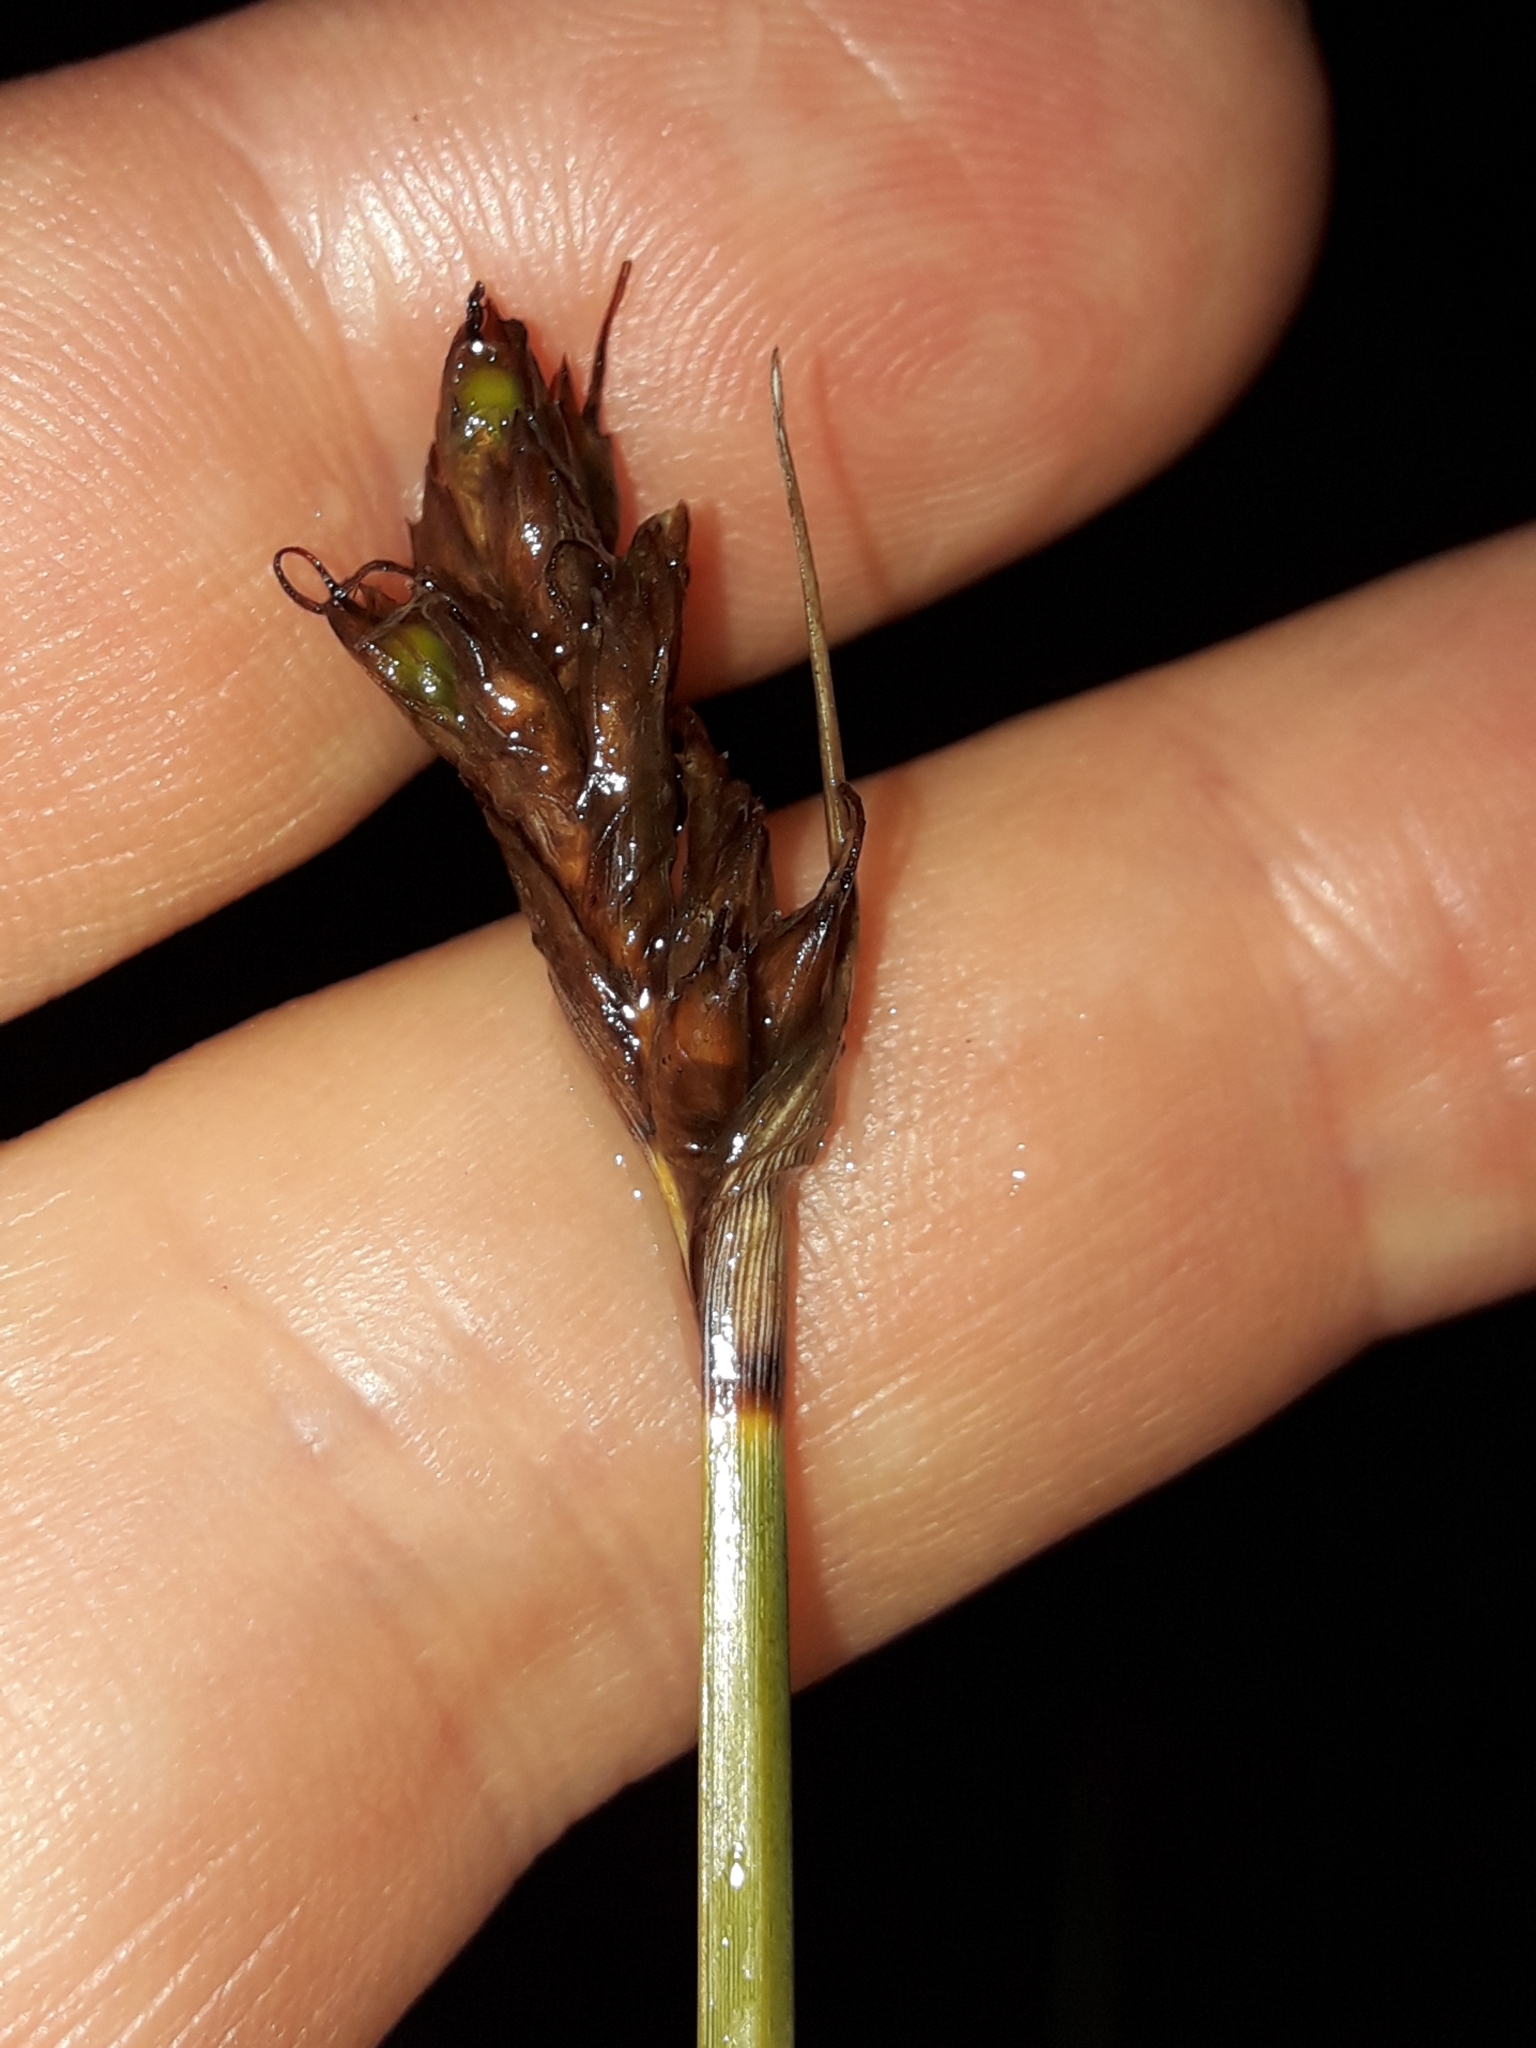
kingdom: Plantae
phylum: Tracheophyta
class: Liliopsida
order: Poales
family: Cyperaceae
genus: Lepidosperma
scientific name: Lepidosperma australe
